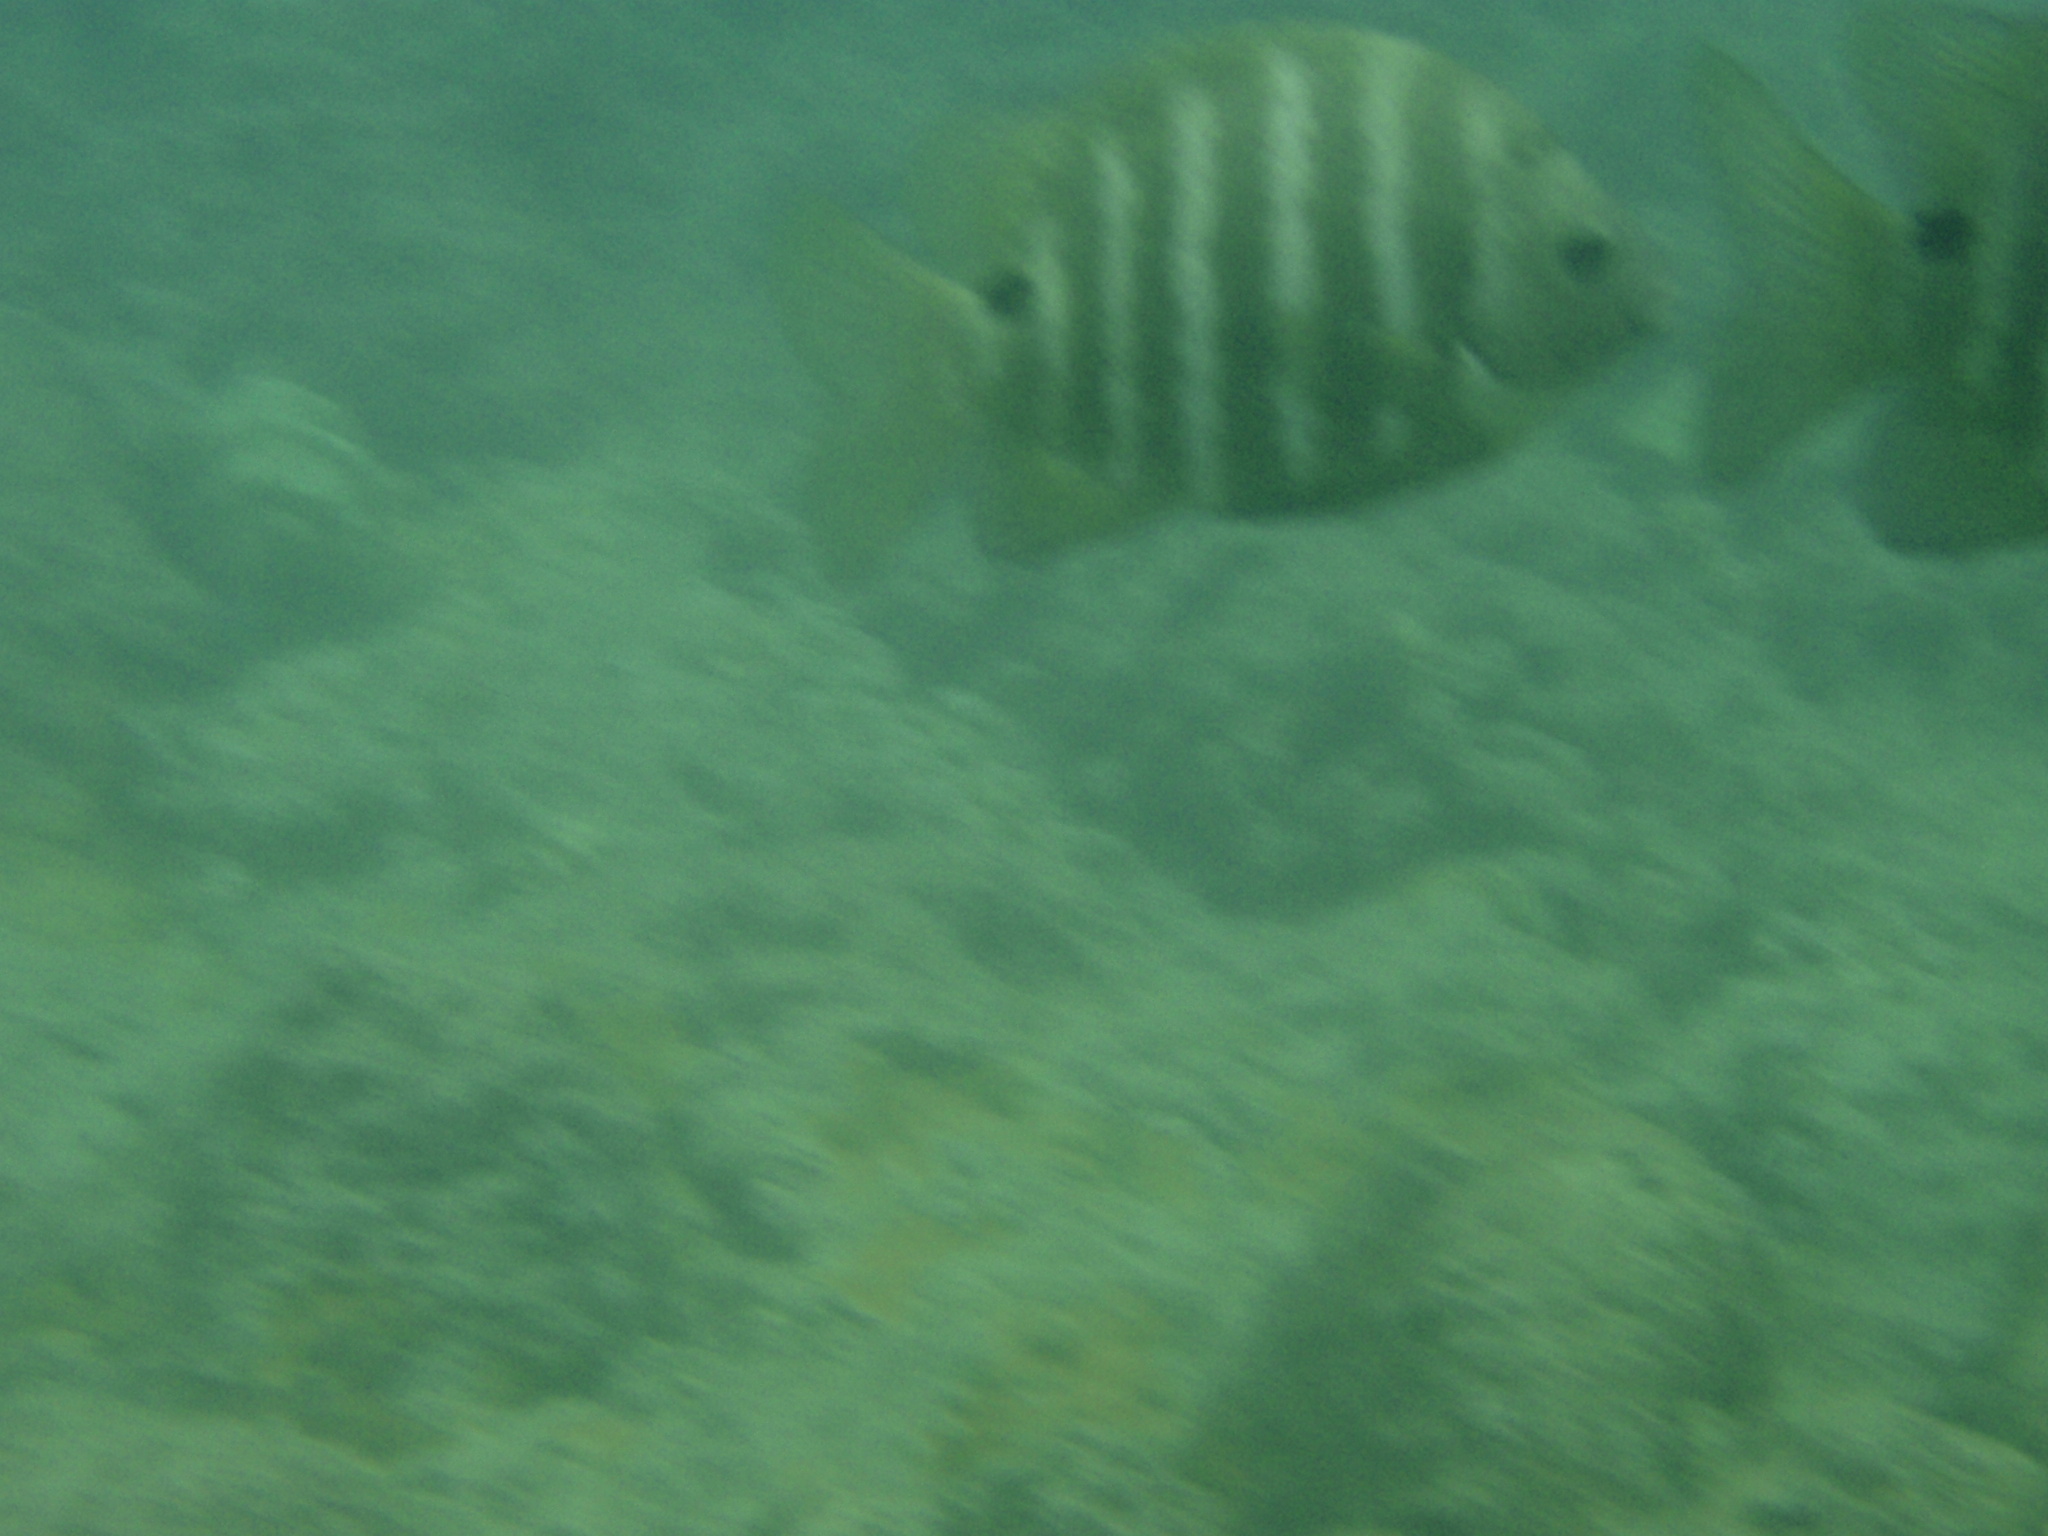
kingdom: Animalia
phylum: Chordata
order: Perciformes
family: Pomacentridae
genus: Abudefduf
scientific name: Abudefduf sordidus
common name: Blackspot sergeant
